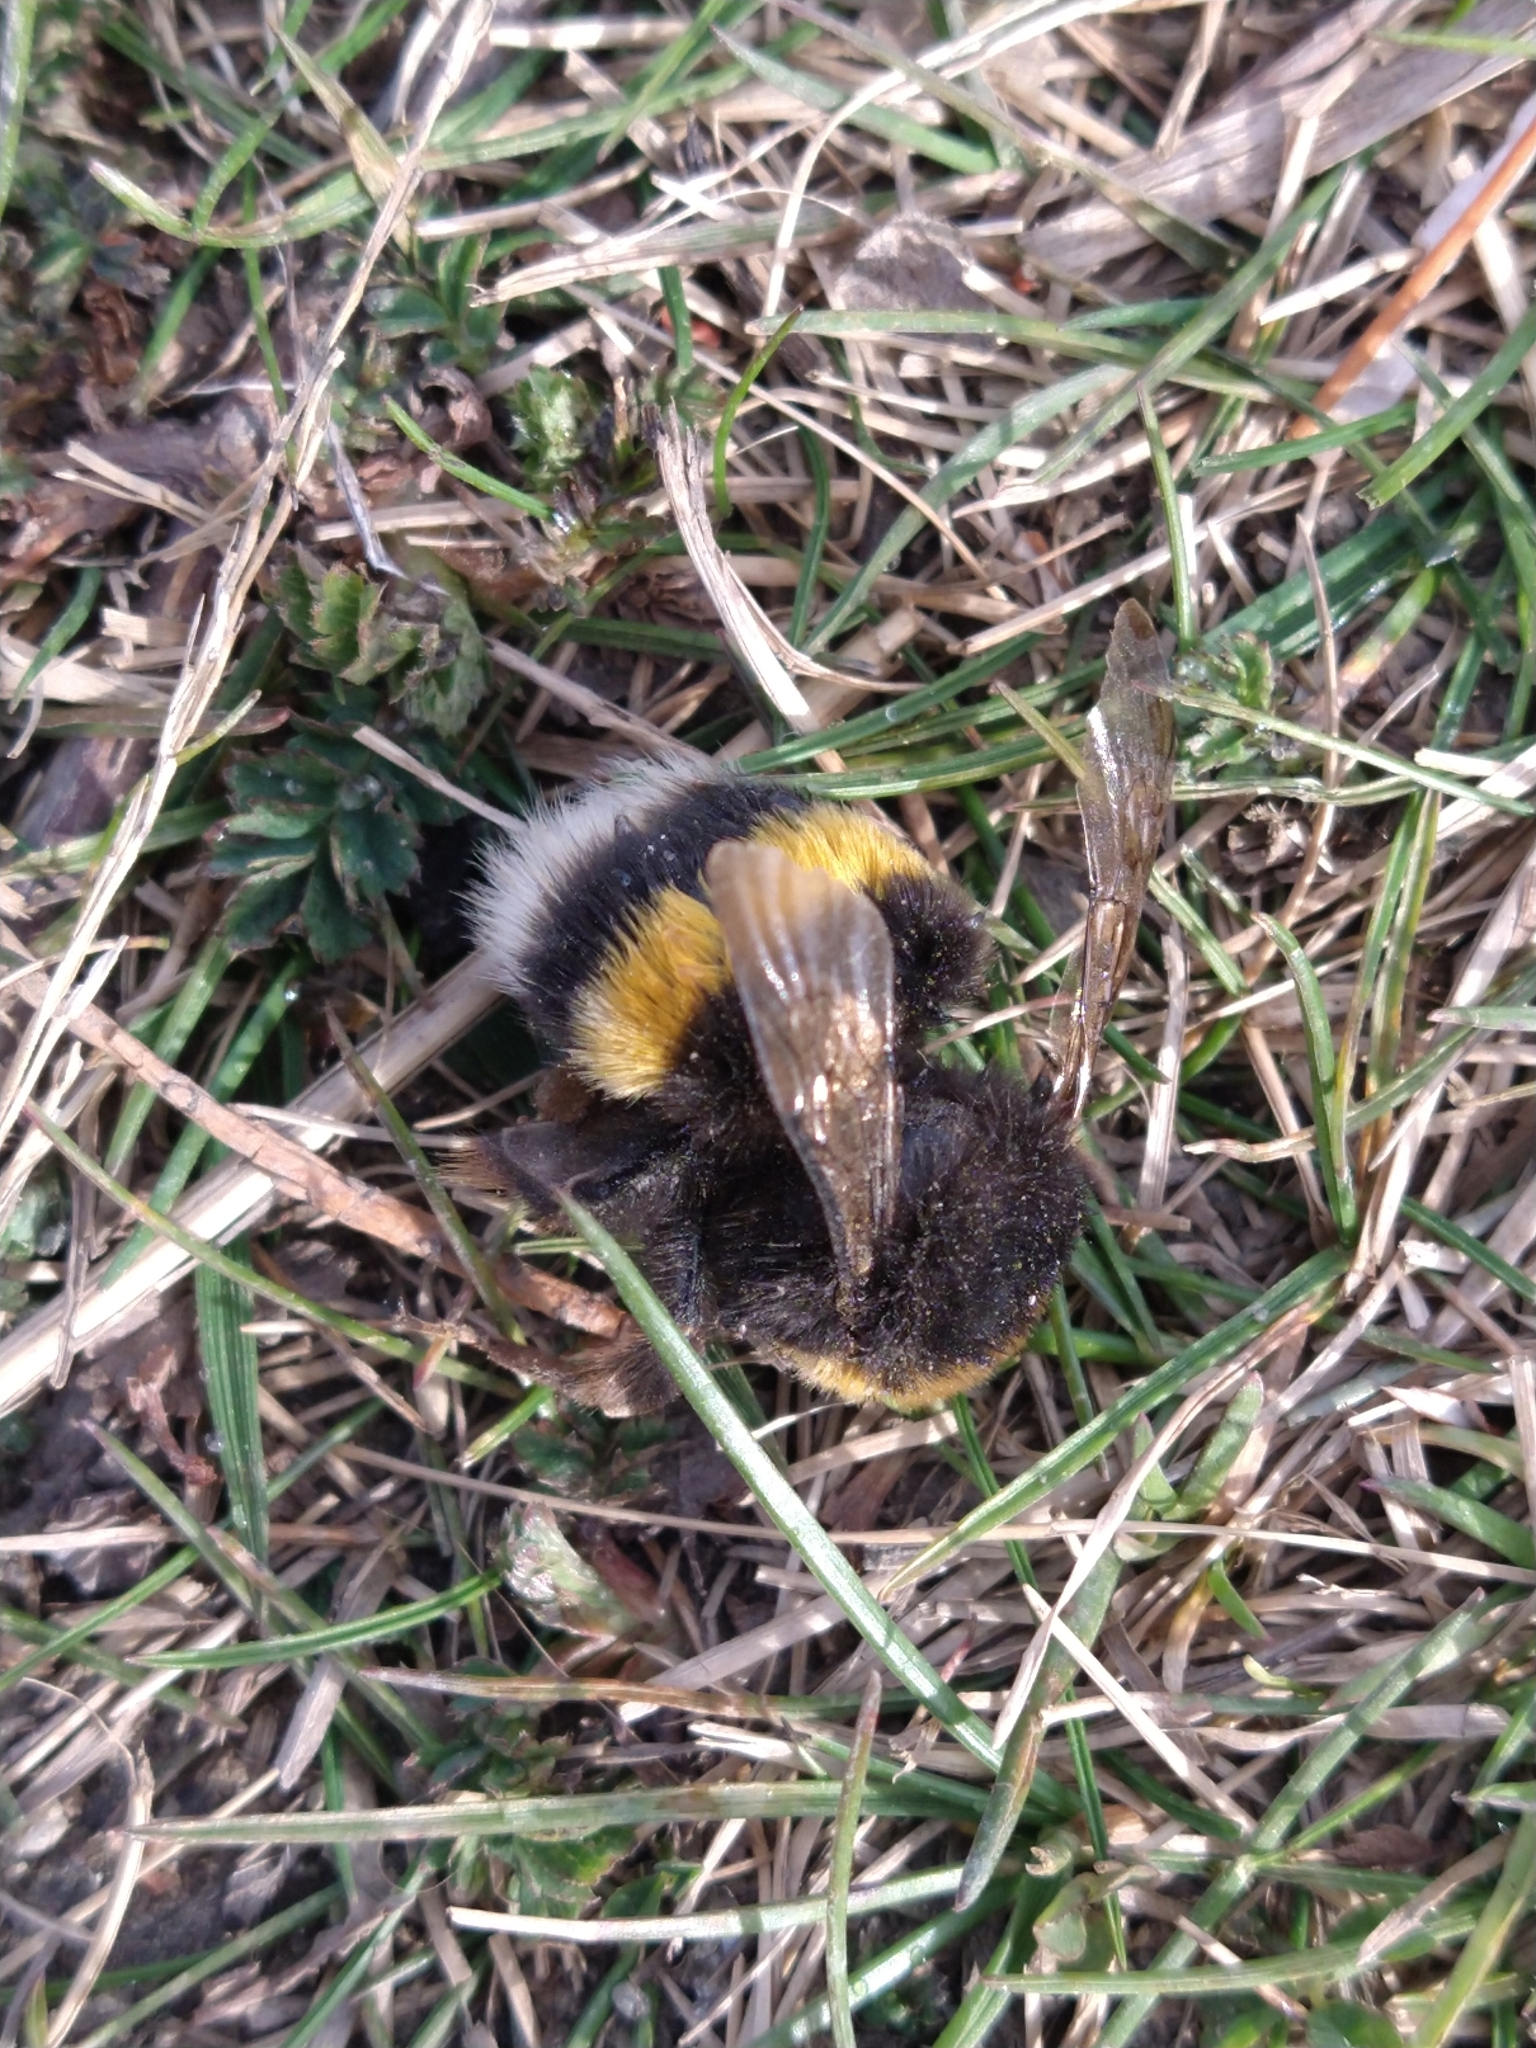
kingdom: Animalia
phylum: Arthropoda
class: Insecta
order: Hymenoptera
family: Apidae
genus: Bombus
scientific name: Bombus terrestris
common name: Buff-tailed bumblebee
